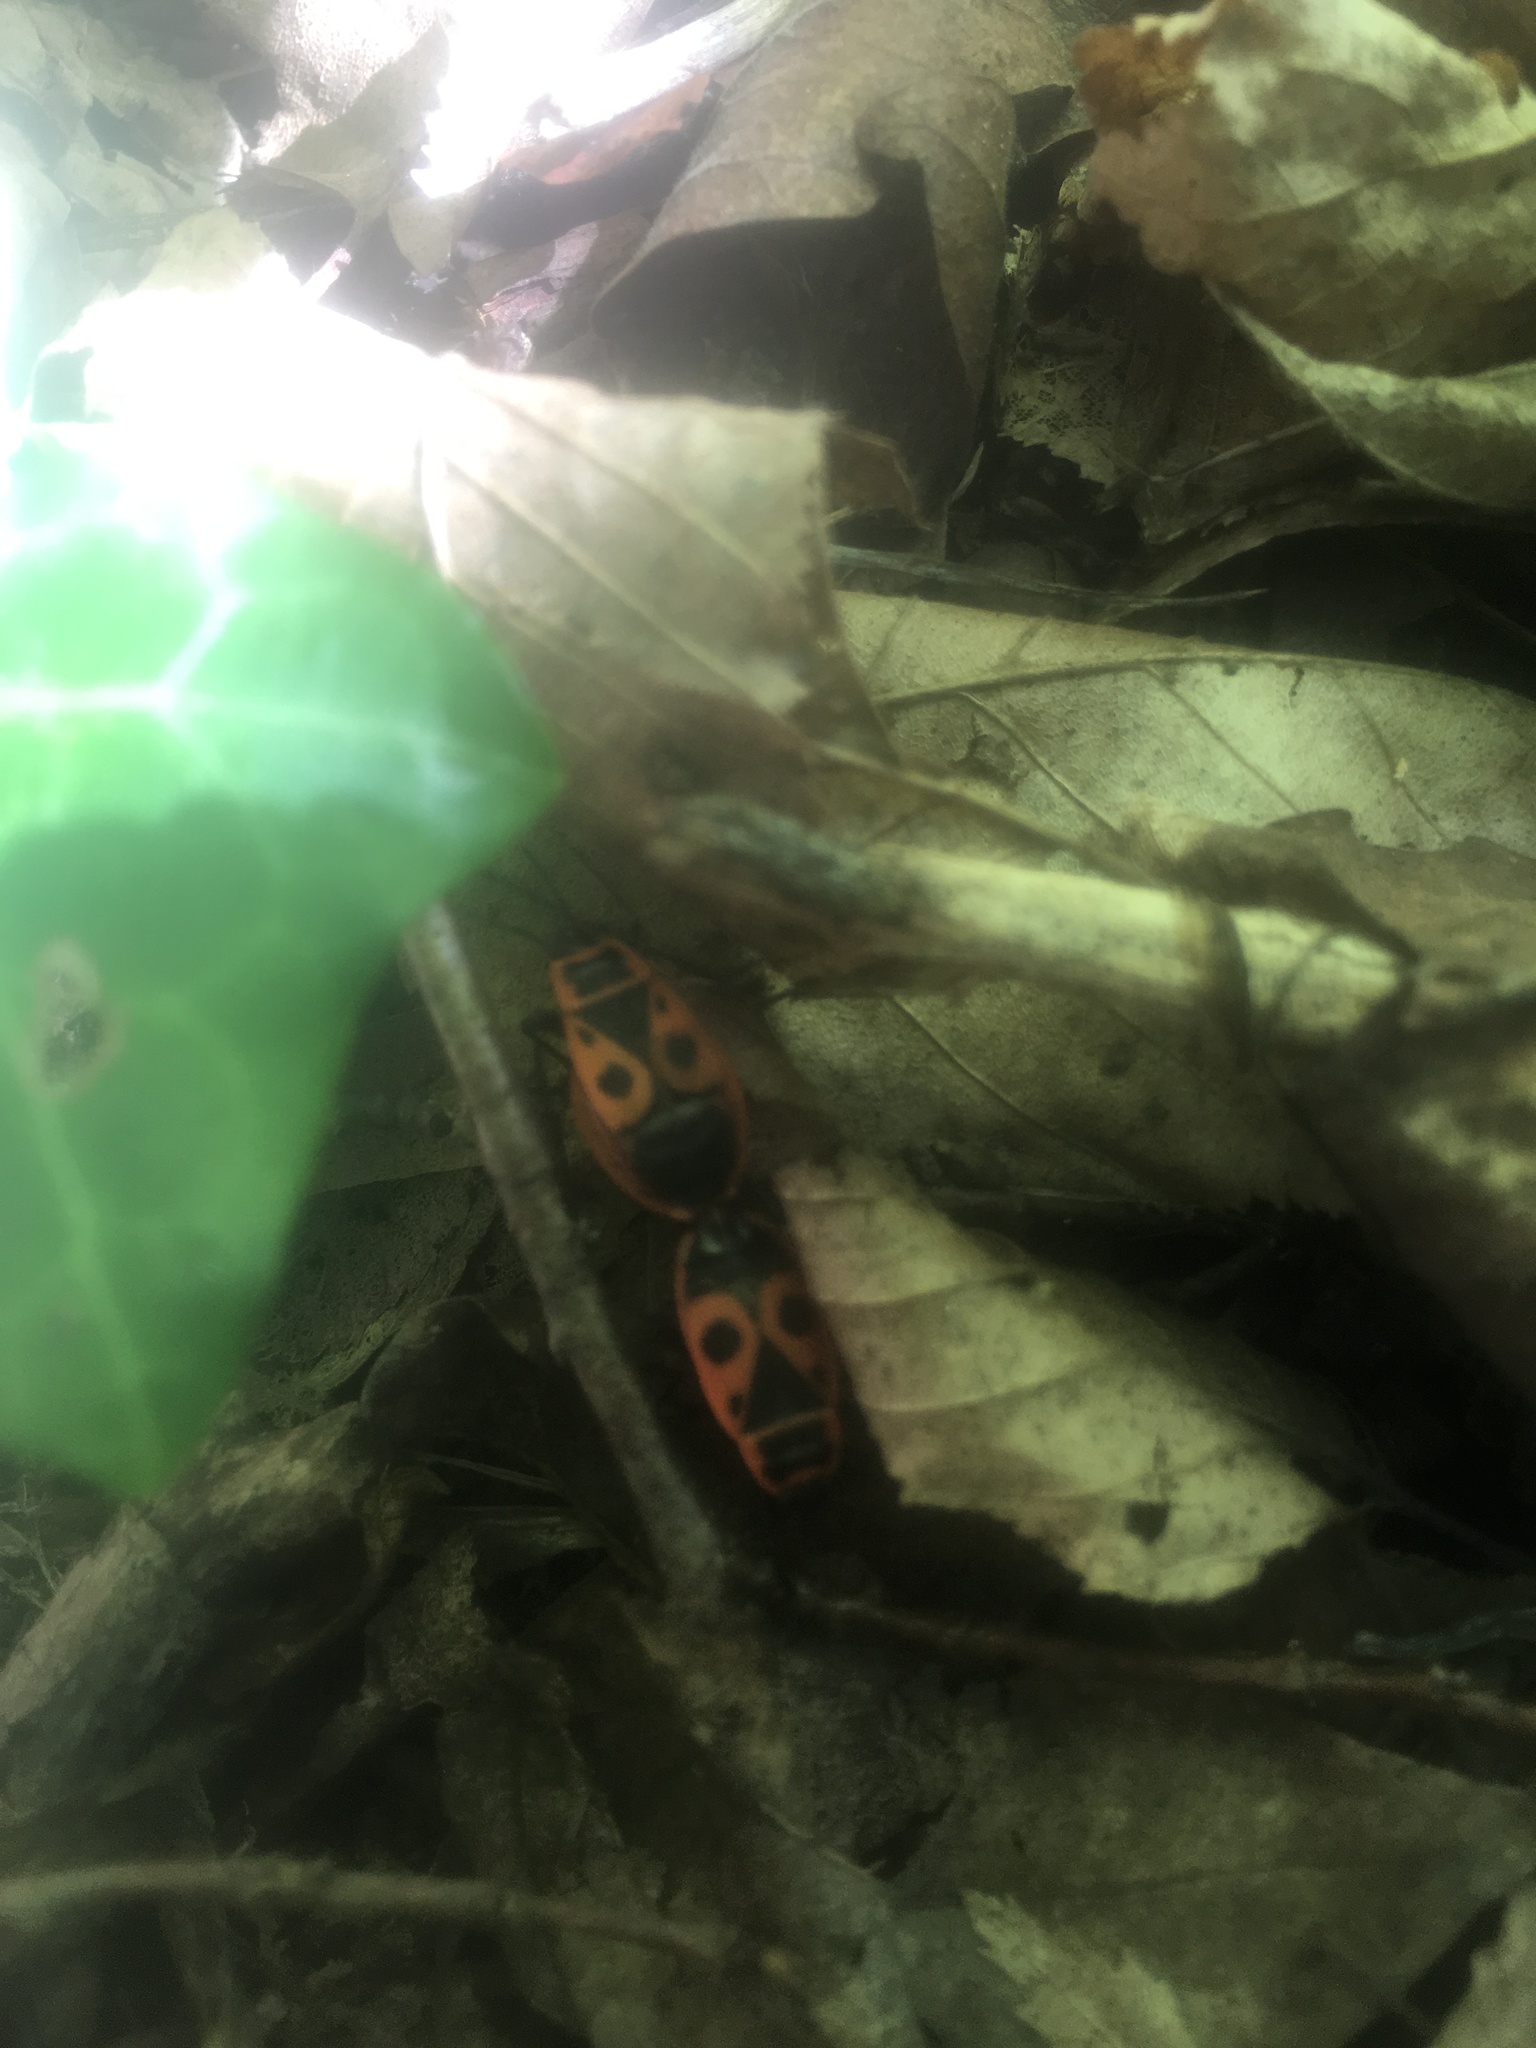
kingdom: Animalia
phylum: Arthropoda
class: Insecta
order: Hemiptera
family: Pyrrhocoridae
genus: Pyrrhocoris
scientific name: Pyrrhocoris apterus
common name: Firebug
